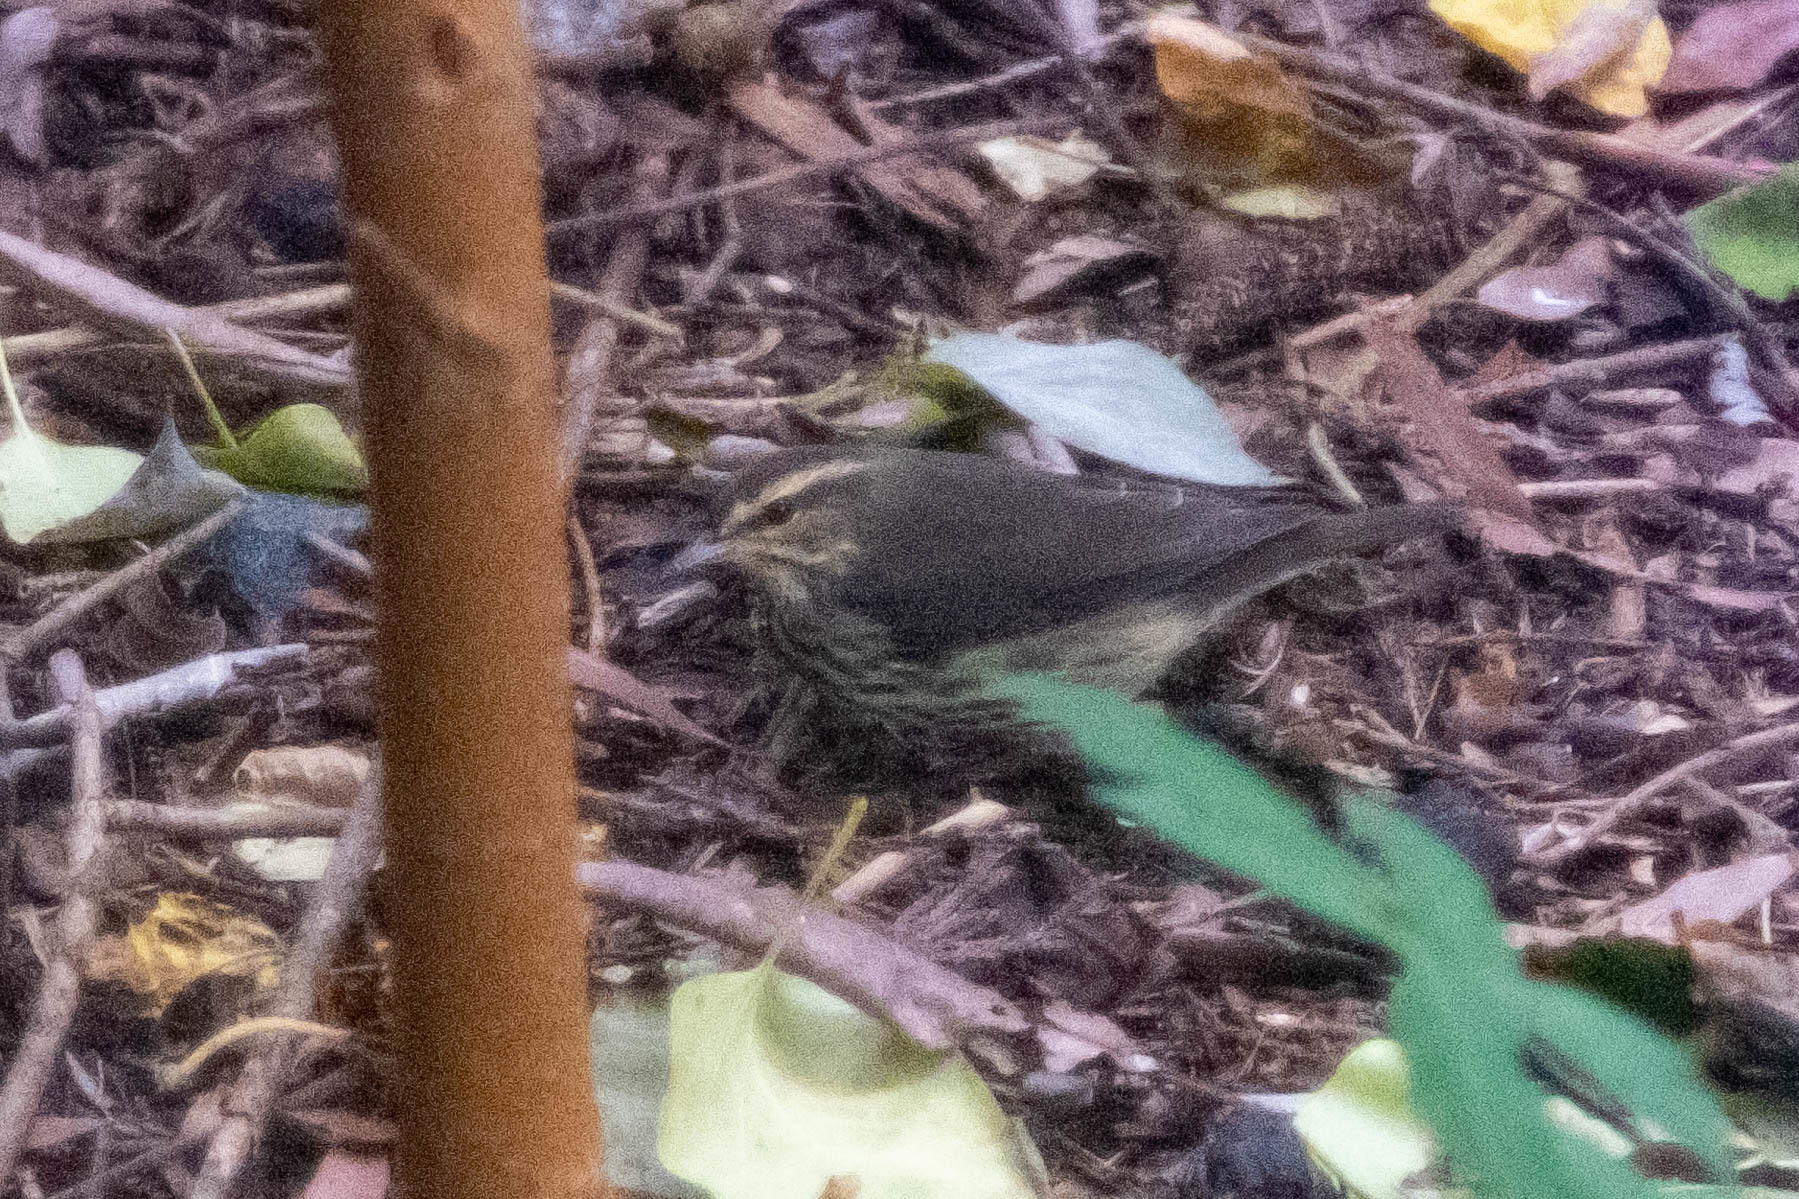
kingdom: Animalia
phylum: Chordata
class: Aves
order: Passeriformes
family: Parulidae
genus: Parkesia
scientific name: Parkesia noveboracensis
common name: Northern waterthrush
